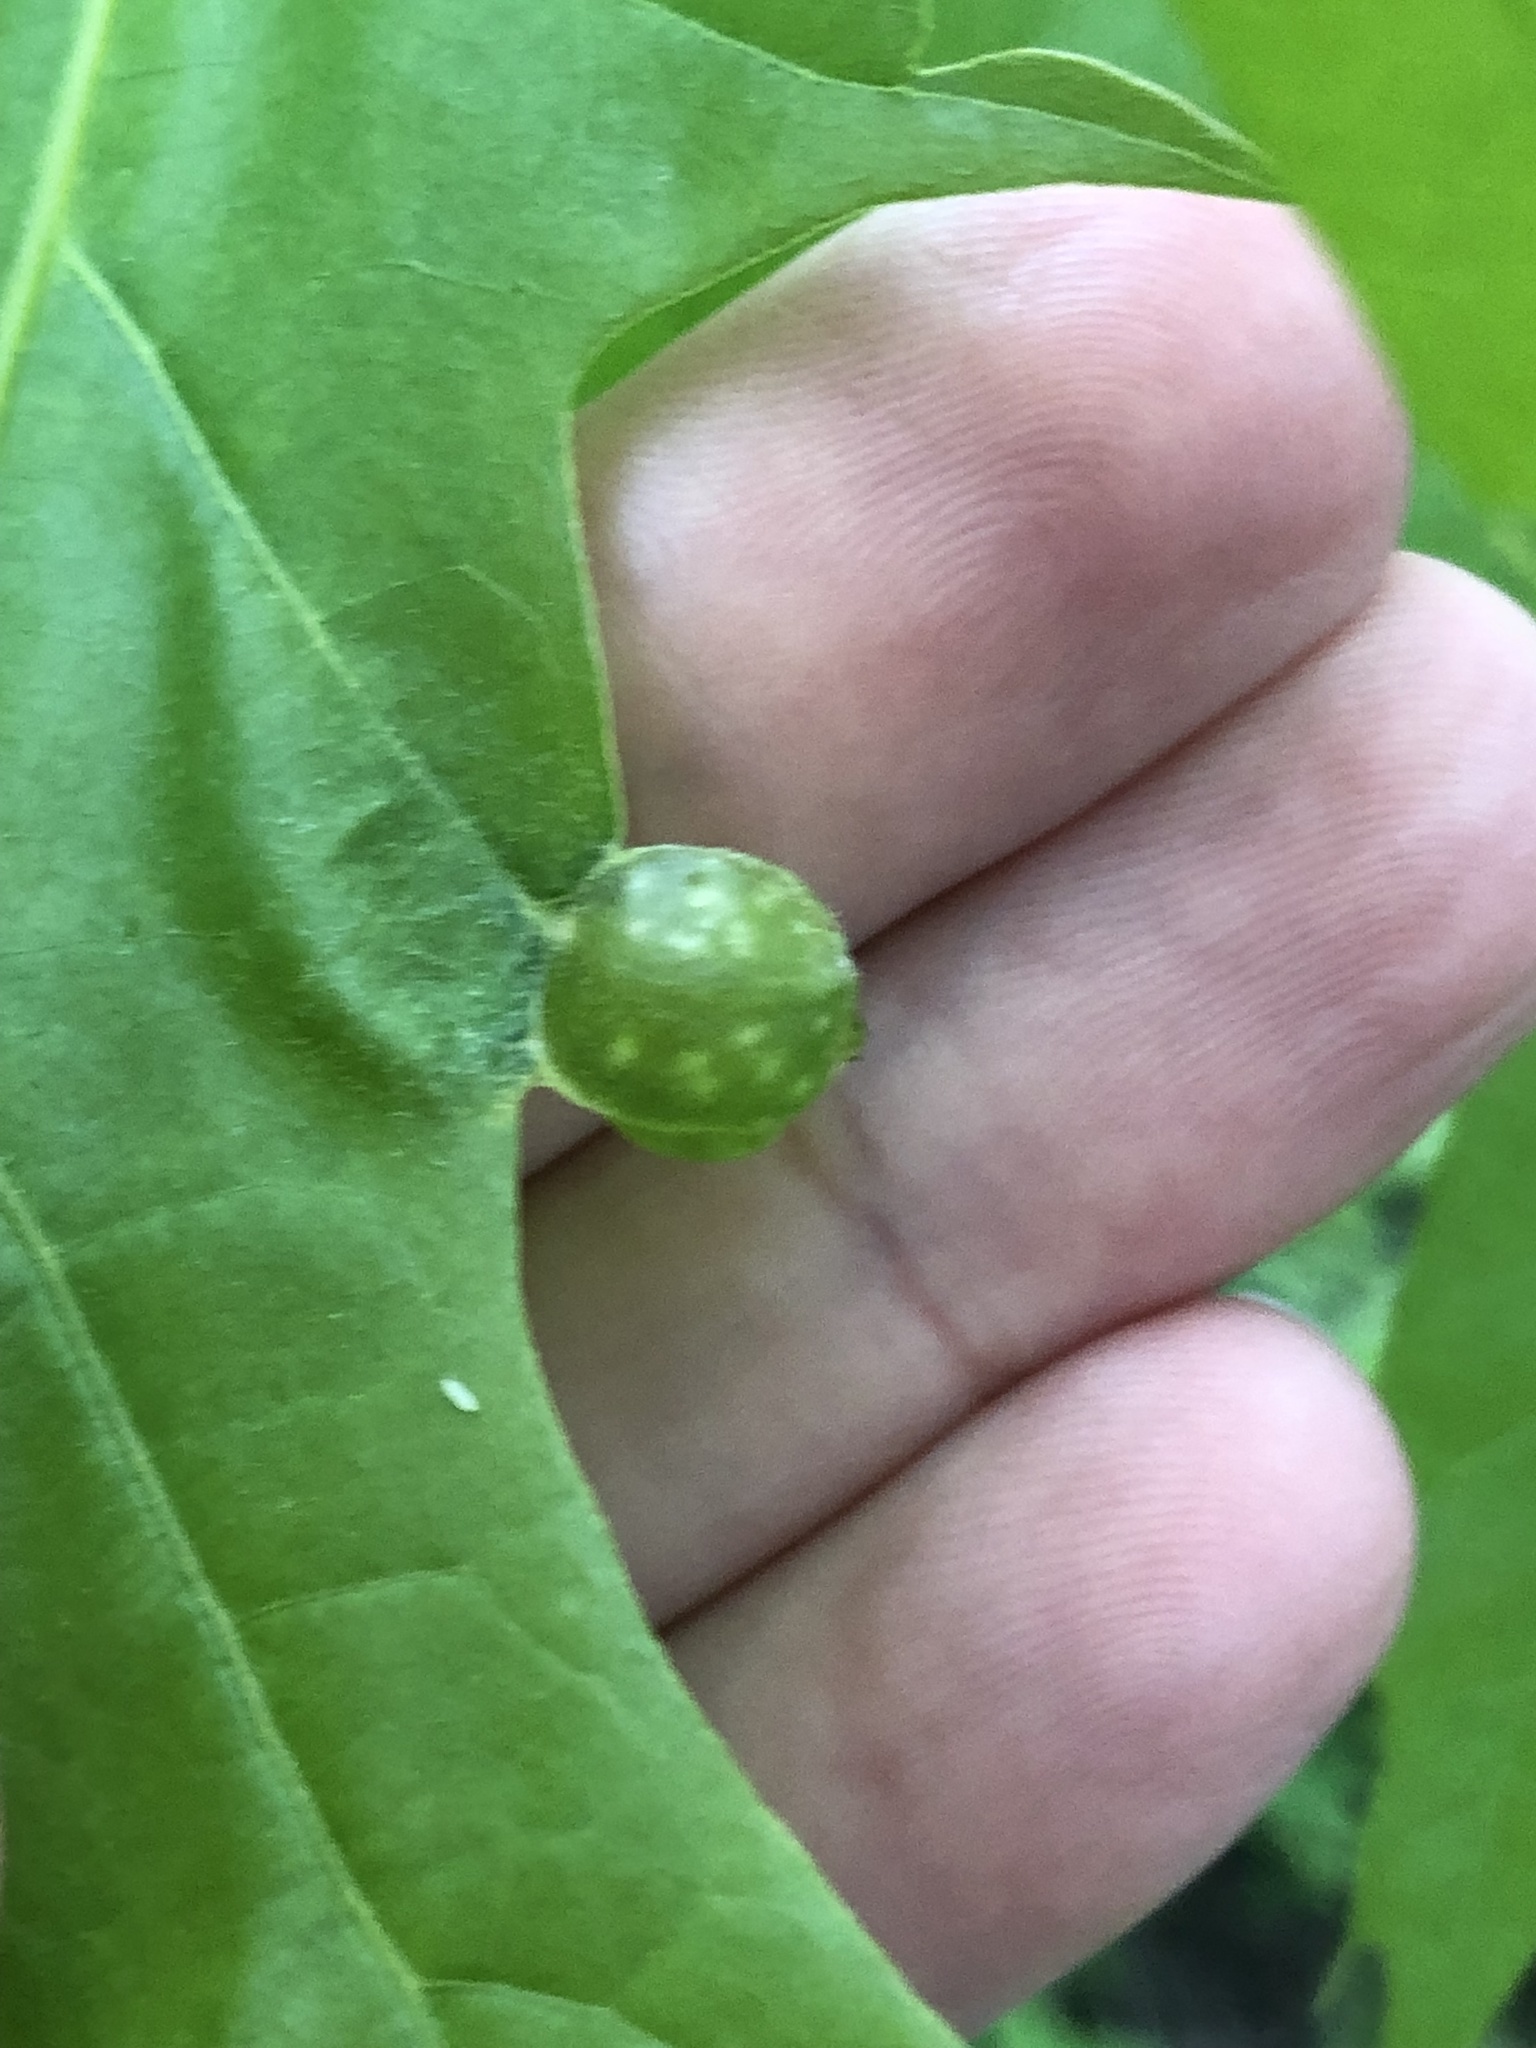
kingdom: Animalia
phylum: Arthropoda
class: Insecta
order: Hymenoptera
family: Cynipidae
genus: Dryocosmus
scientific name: Dryocosmus quercuspalustris
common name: Succulent oak gall wasp
